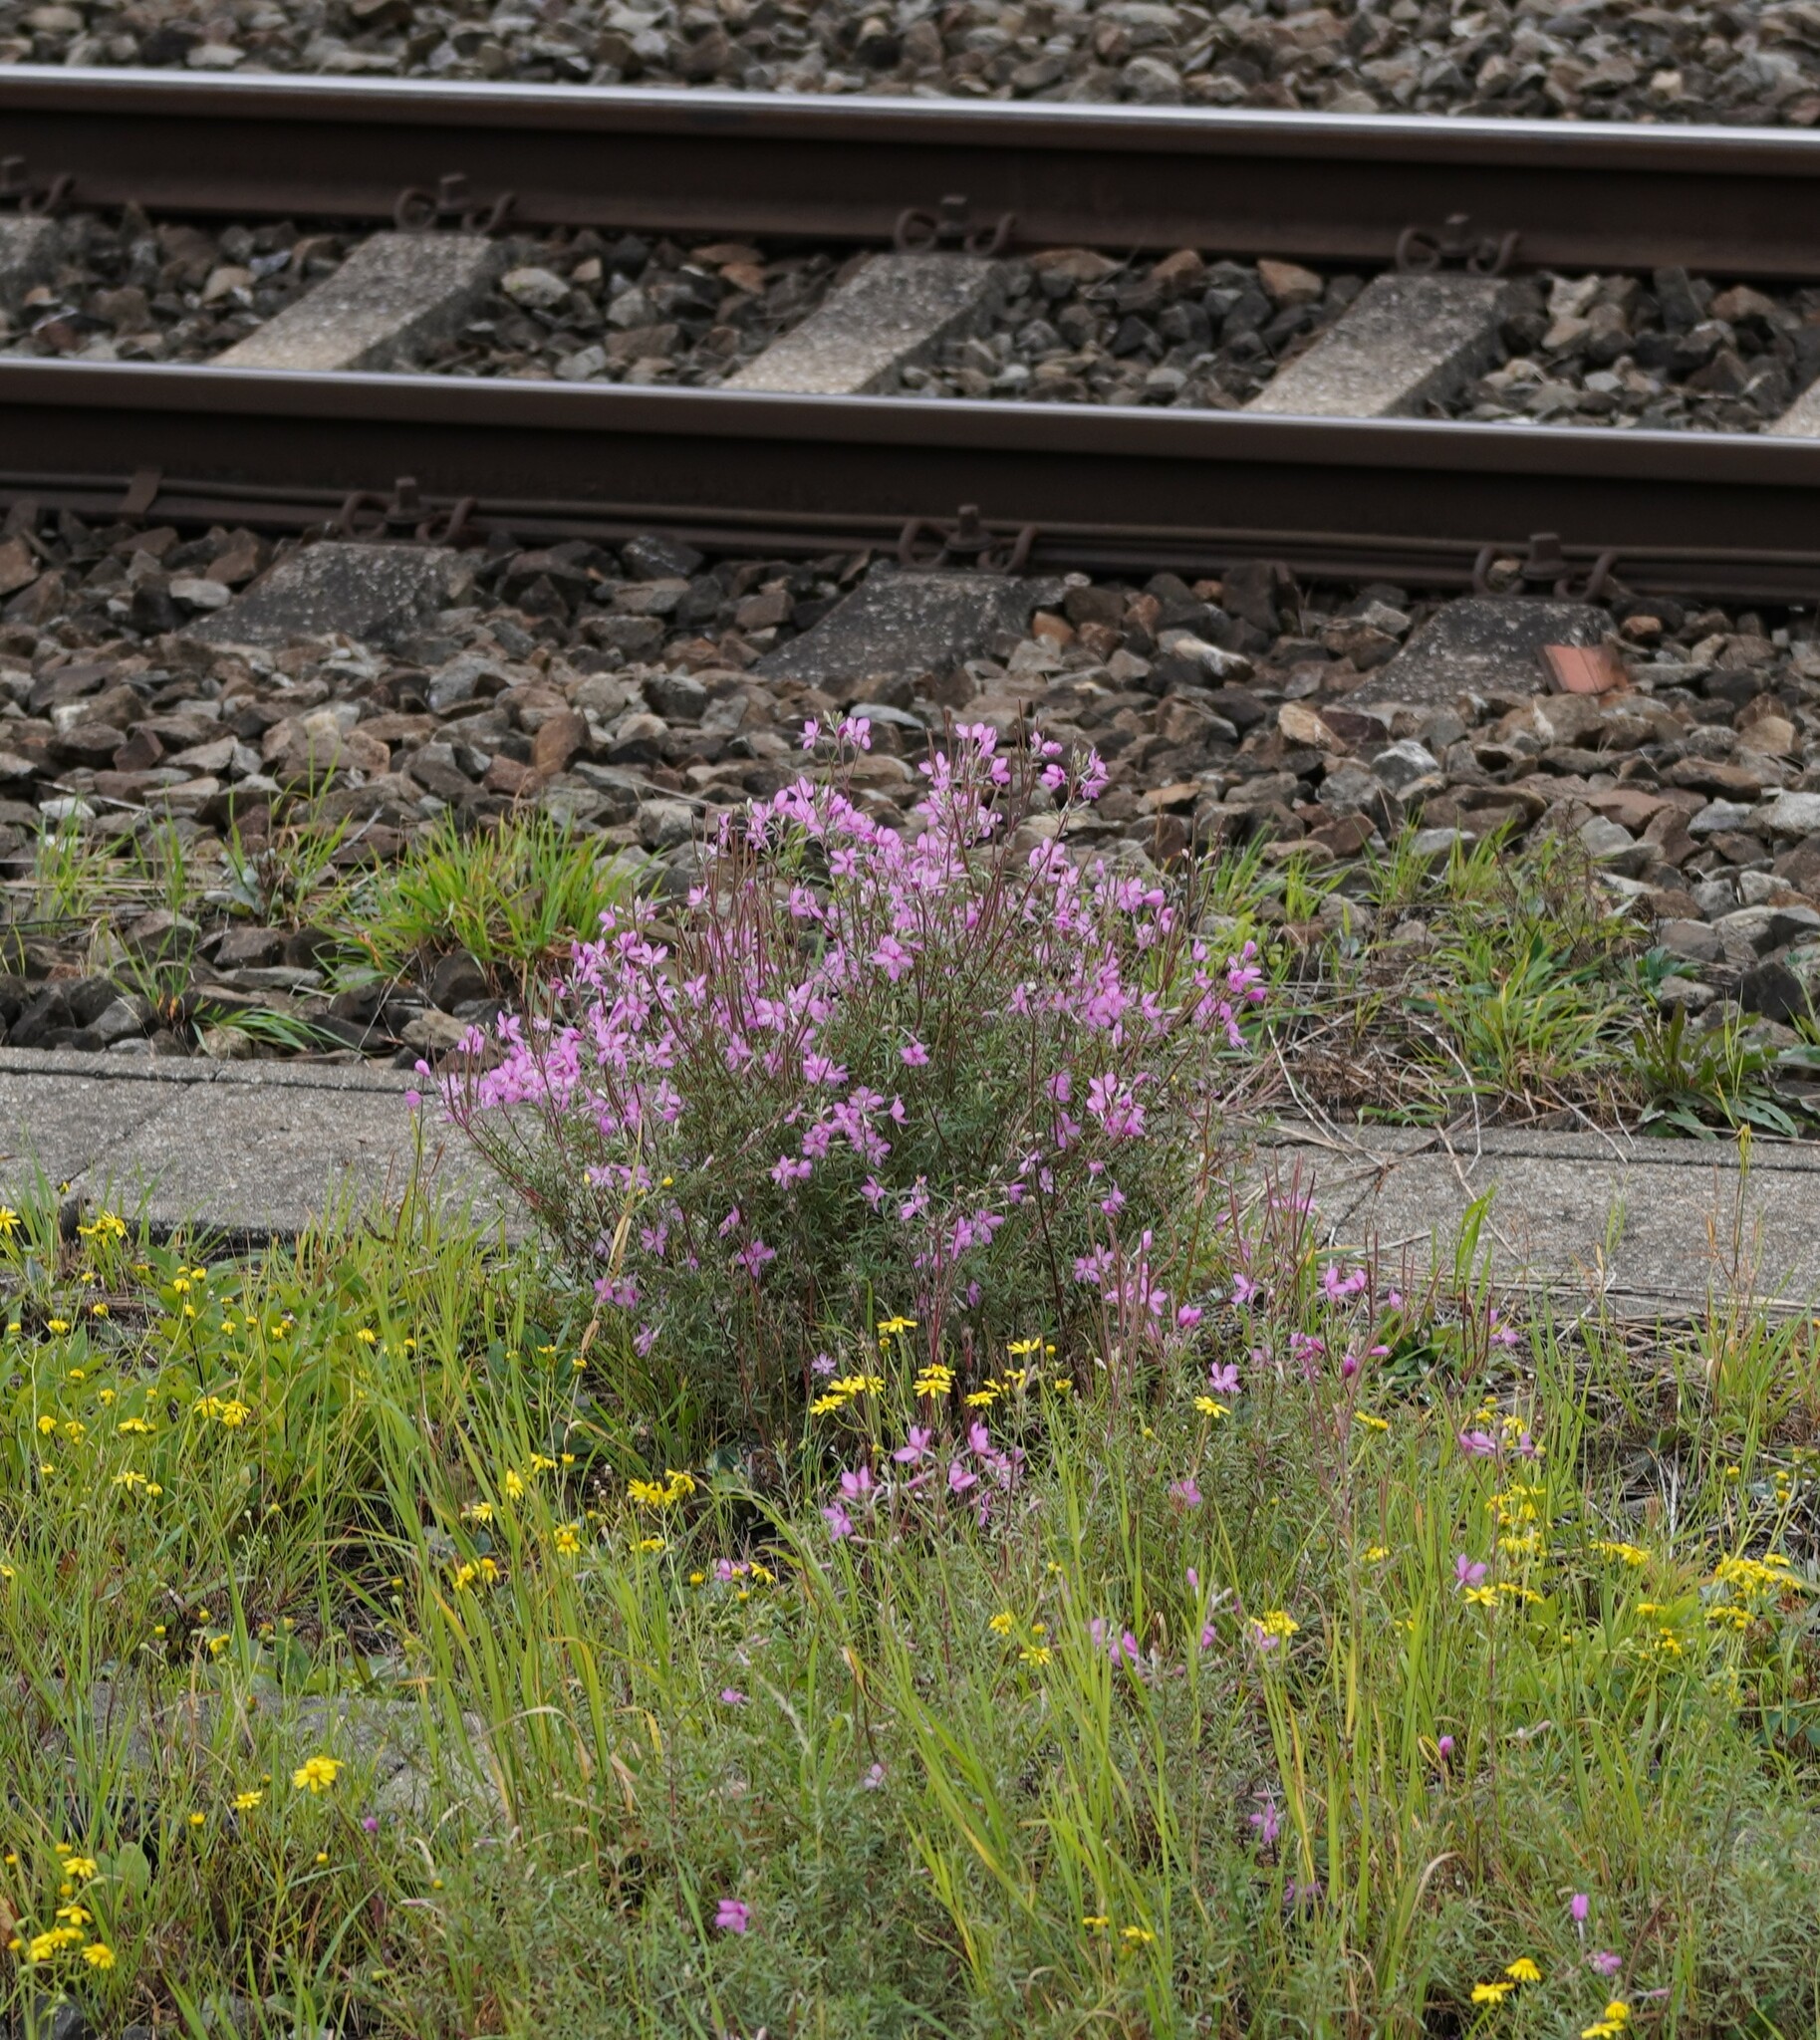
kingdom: Plantae
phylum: Tracheophyta
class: Magnoliopsida
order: Myrtales
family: Onagraceae
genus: Chamaenerion
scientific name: Chamaenerion dodonaei
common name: Rosemary-leaved willowherb
